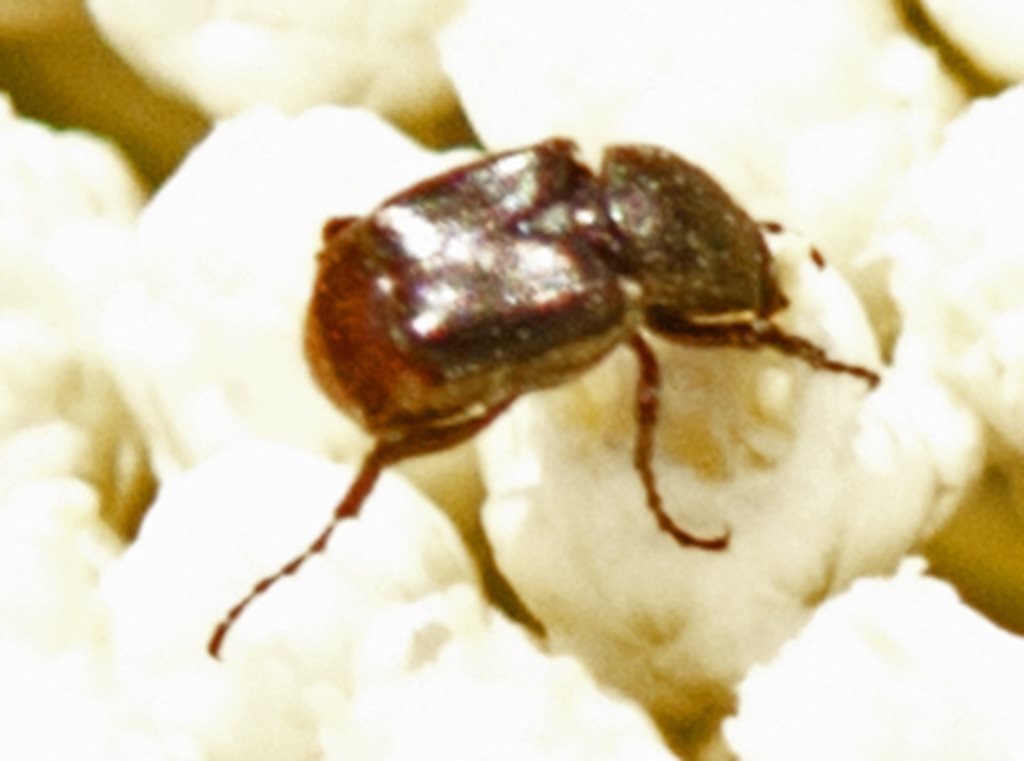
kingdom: Animalia
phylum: Arthropoda
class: Insecta
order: Coleoptera
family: Scarabaeidae
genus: Microvalgus
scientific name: Microvalgus glaber
